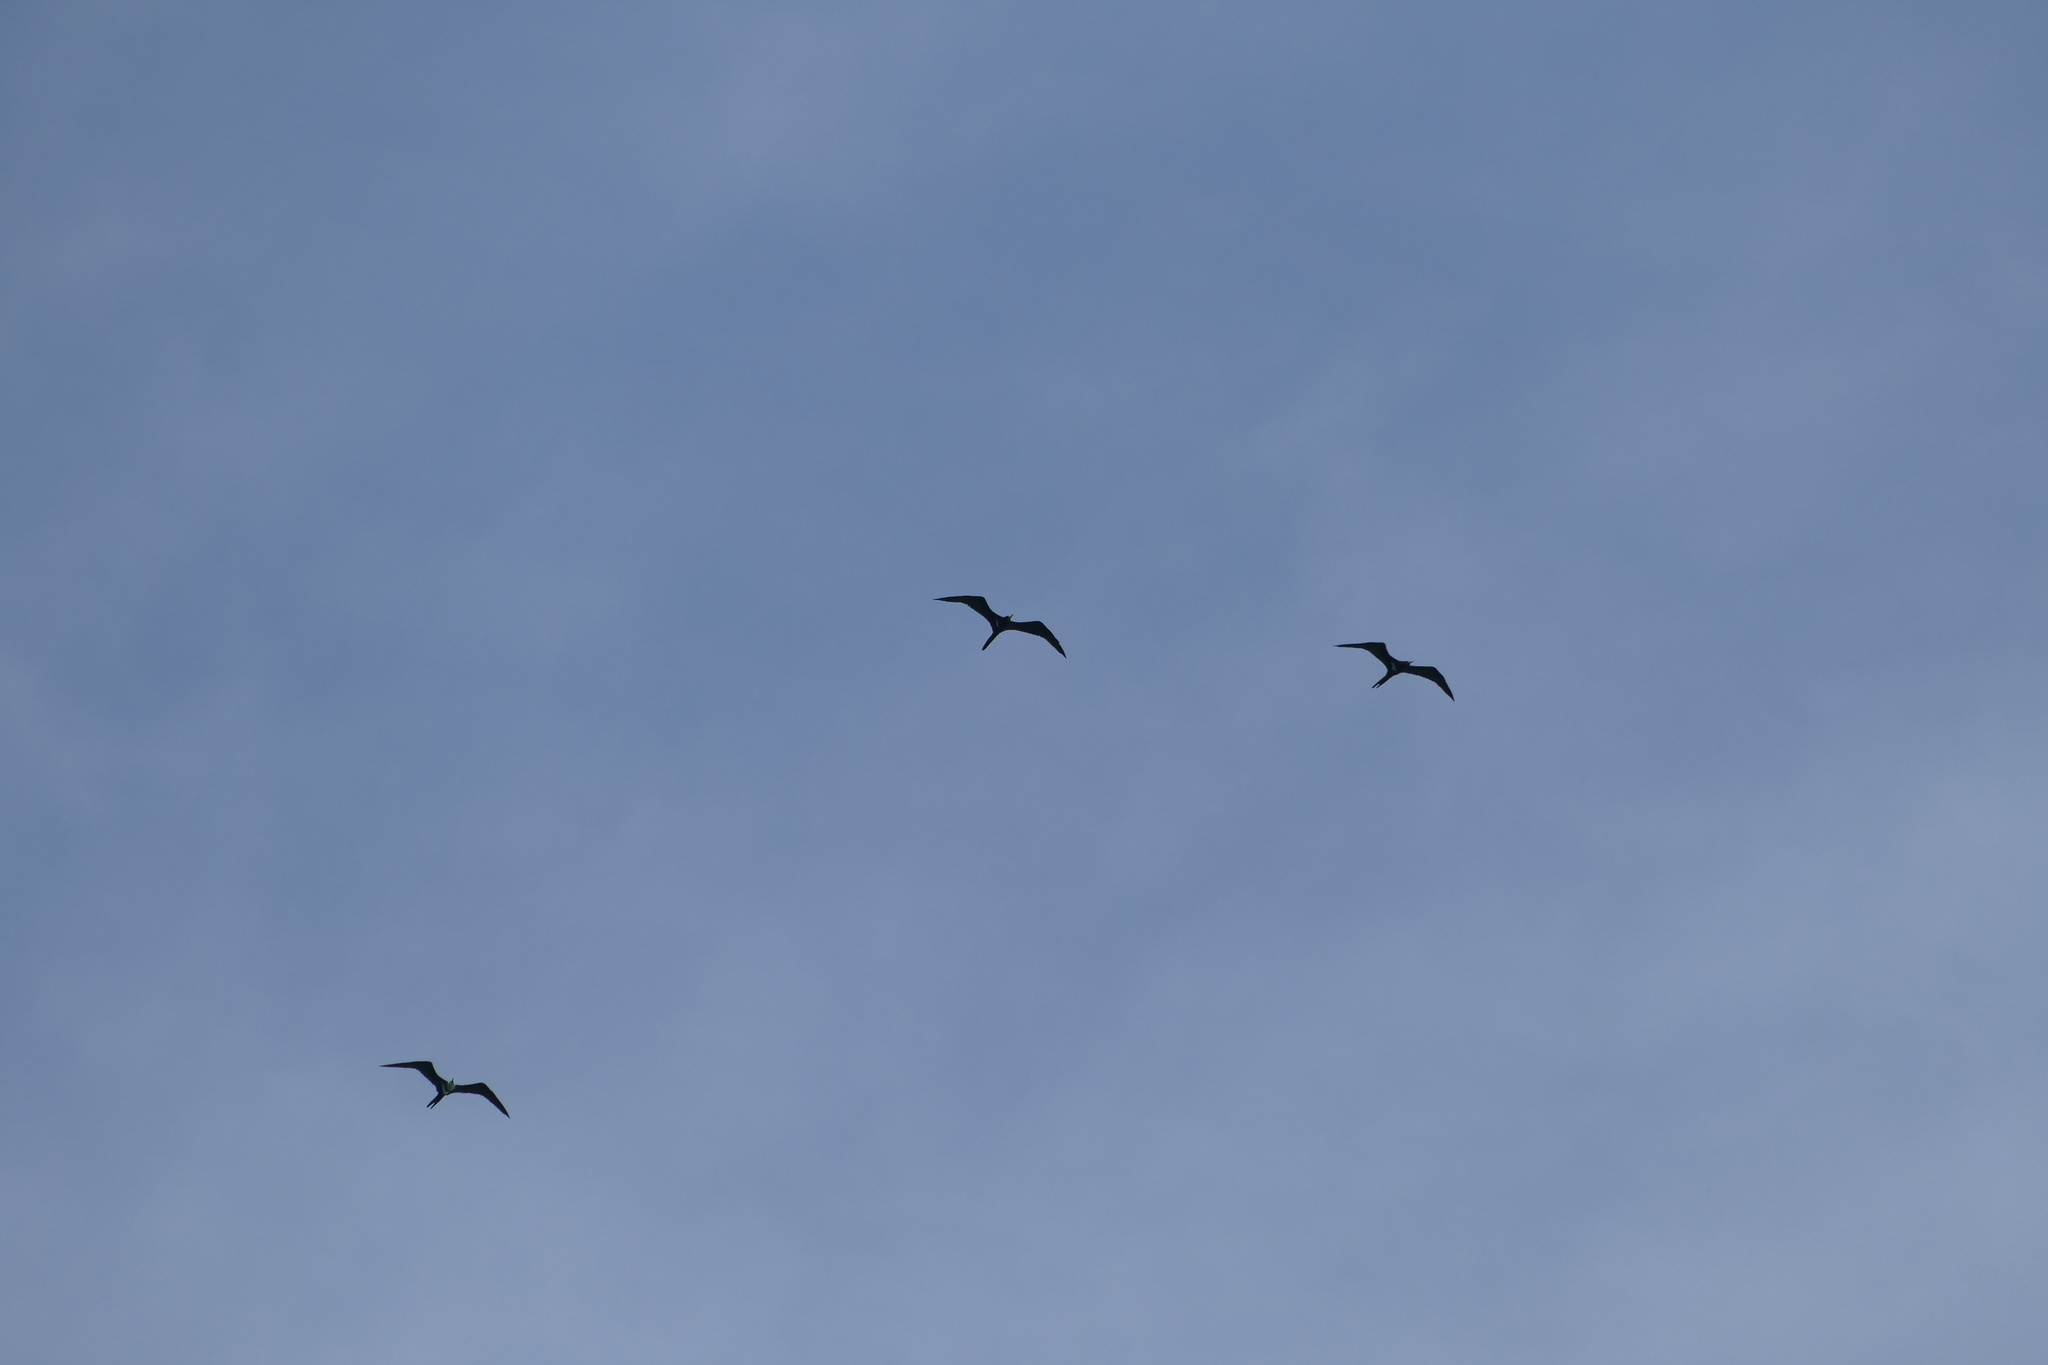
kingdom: Animalia
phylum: Chordata
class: Aves
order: Suliformes
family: Fregatidae
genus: Fregata
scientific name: Fregata ariel
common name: Lesser frigatebird
